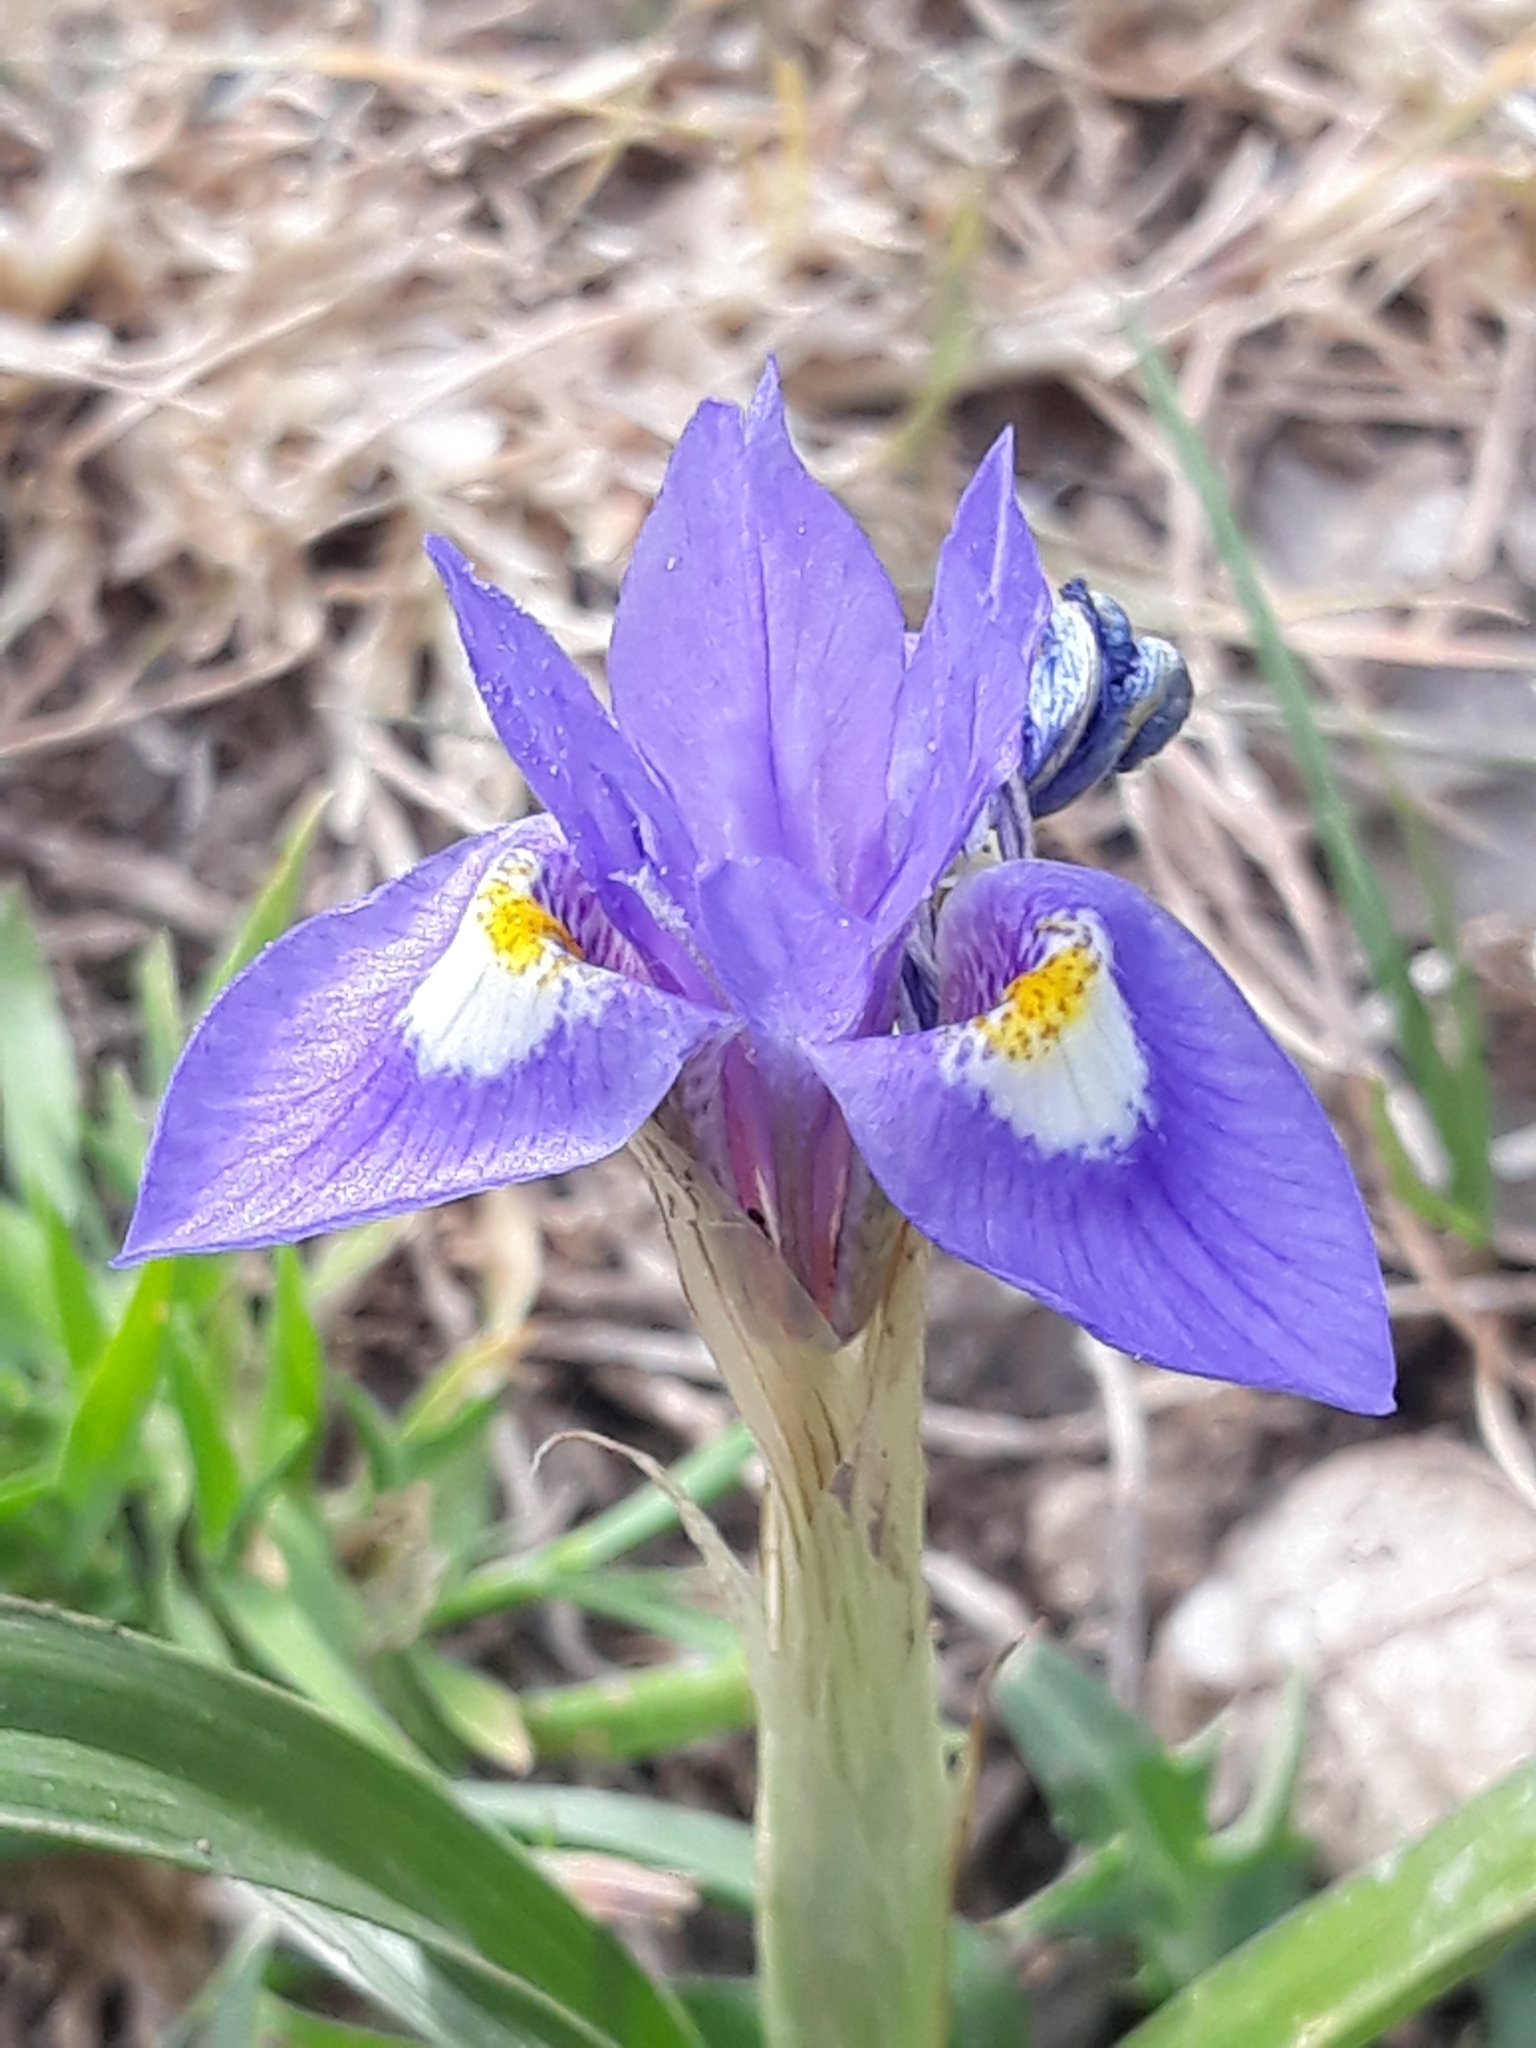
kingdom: Plantae
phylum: Tracheophyta
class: Liliopsida
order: Asparagales
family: Iridaceae
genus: Moraea
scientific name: Moraea sisyrinchium
